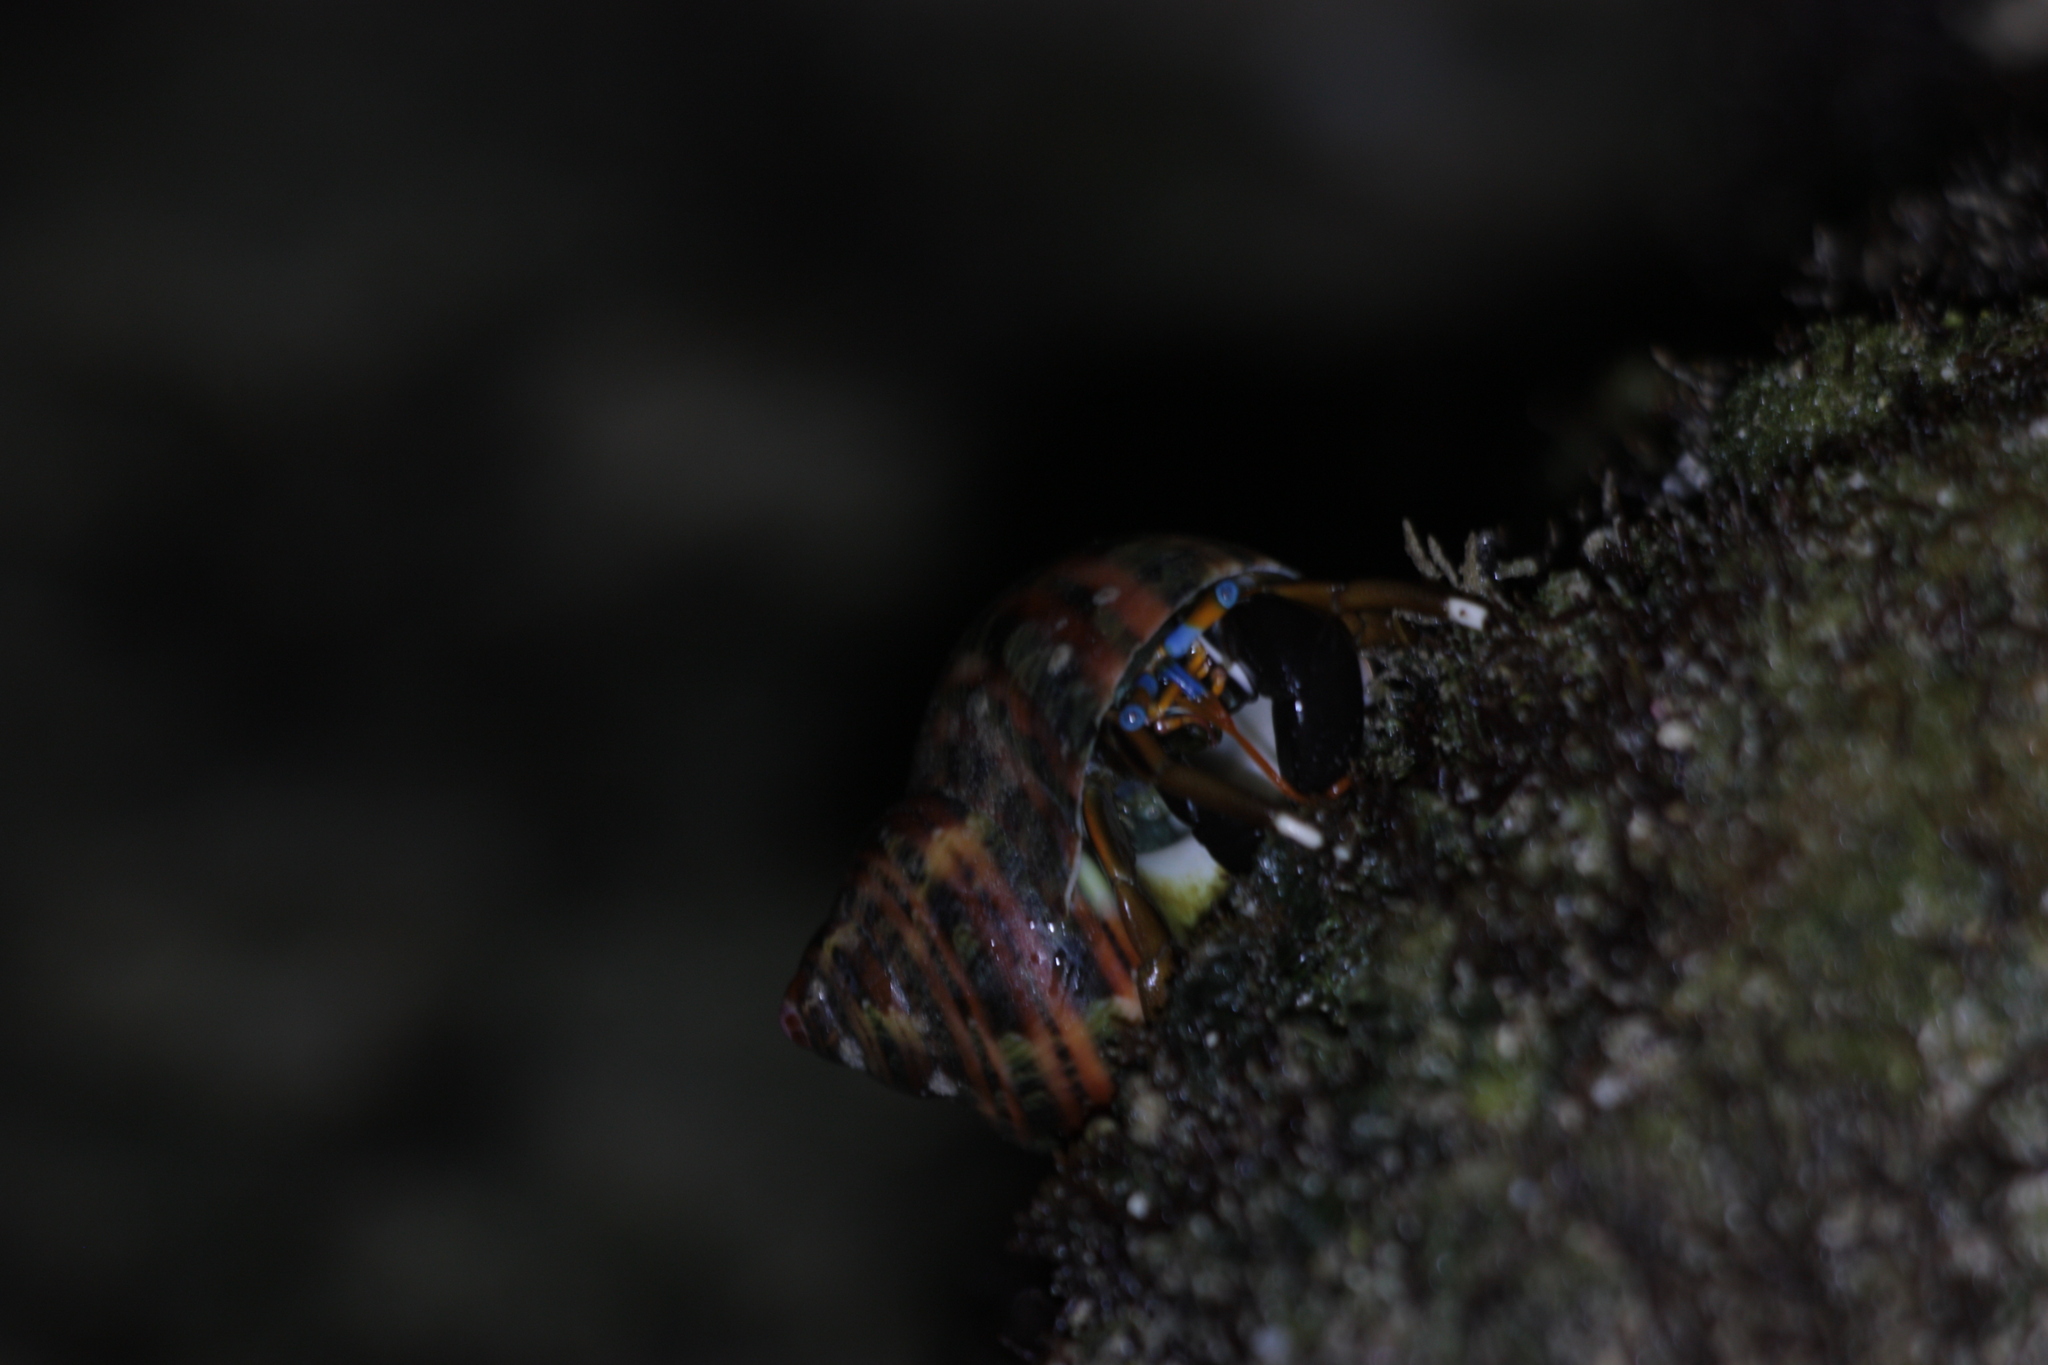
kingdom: Animalia
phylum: Arthropoda
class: Malacostraca
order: Decapoda
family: Diogenidae
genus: Calcinus
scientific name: Calcinus laevimanus
